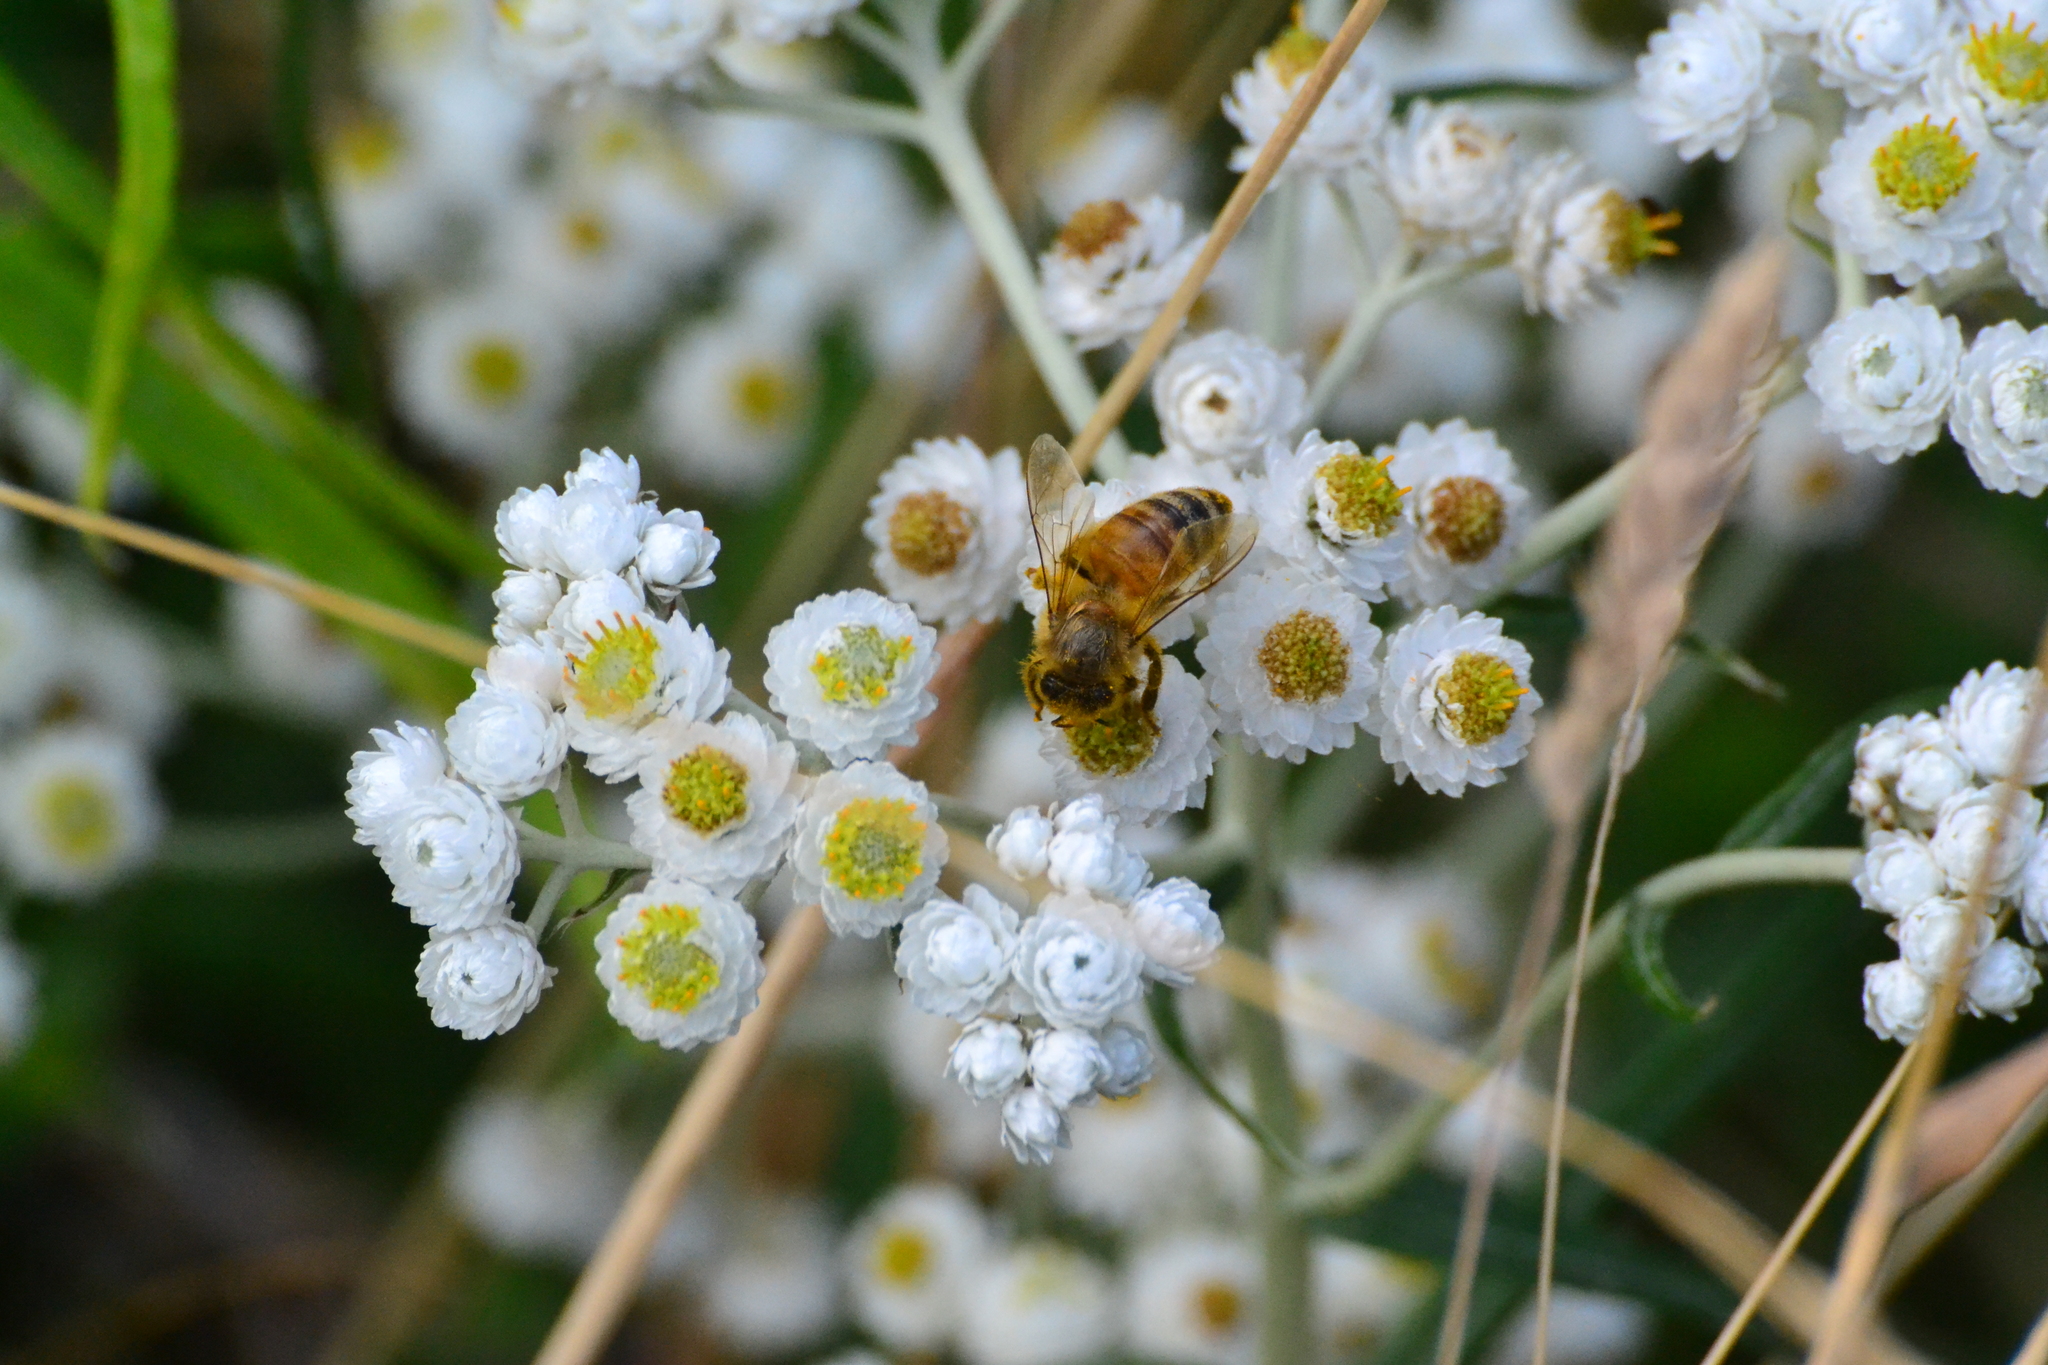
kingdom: Animalia
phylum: Arthropoda
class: Insecta
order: Hymenoptera
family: Apidae
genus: Apis
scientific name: Apis mellifera
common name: Honey bee
